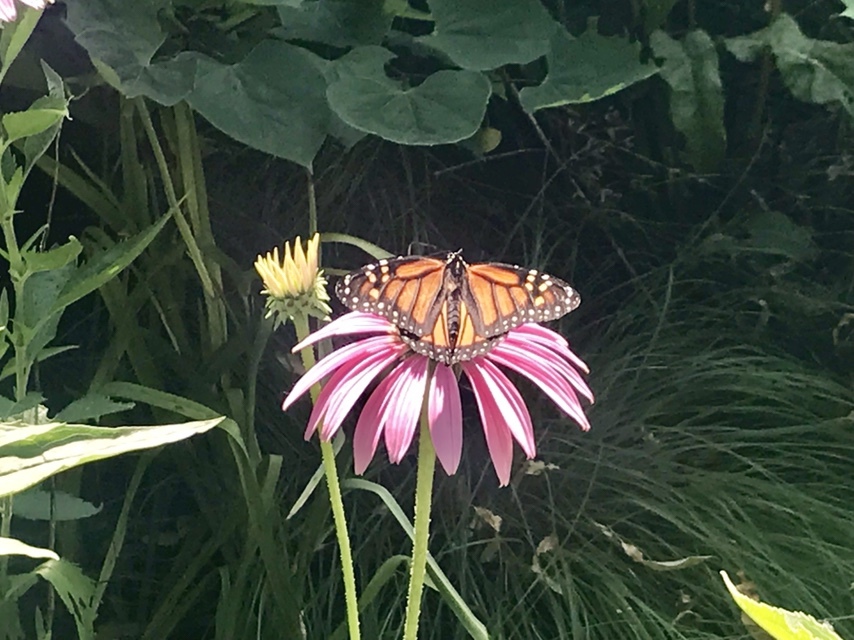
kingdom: Animalia
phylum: Arthropoda
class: Insecta
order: Lepidoptera
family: Nymphalidae
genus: Danaus
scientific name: Danaus plexippus
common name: Monarch
